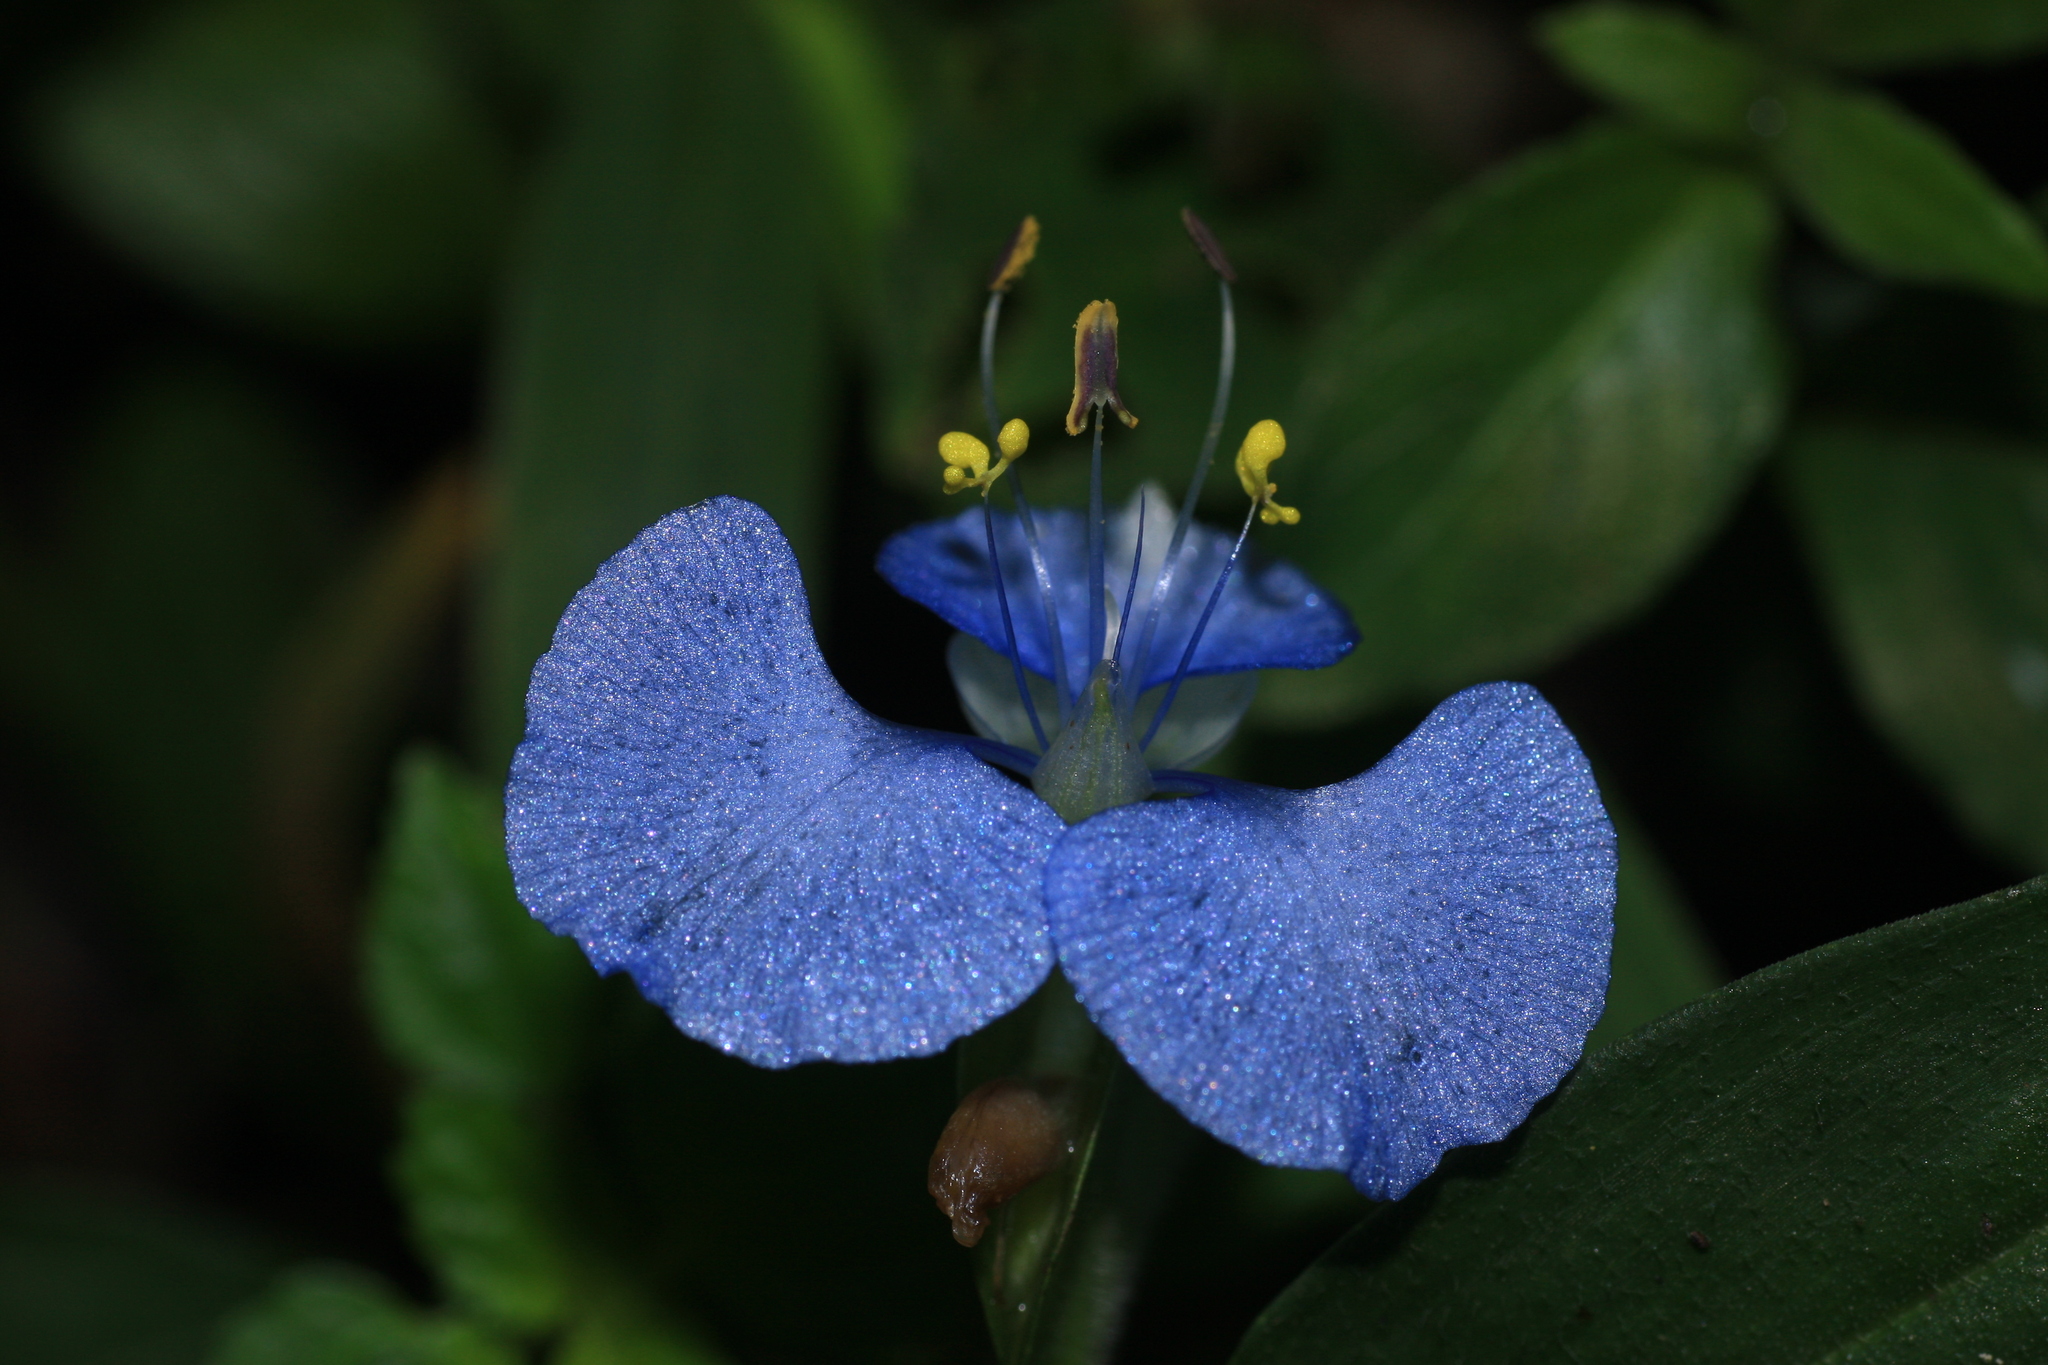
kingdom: Plantae
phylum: Tracheophyta
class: Liliopsida
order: Commelinales
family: Commelinaceae
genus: Commelina
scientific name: Commelina benghalensis
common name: Jio
